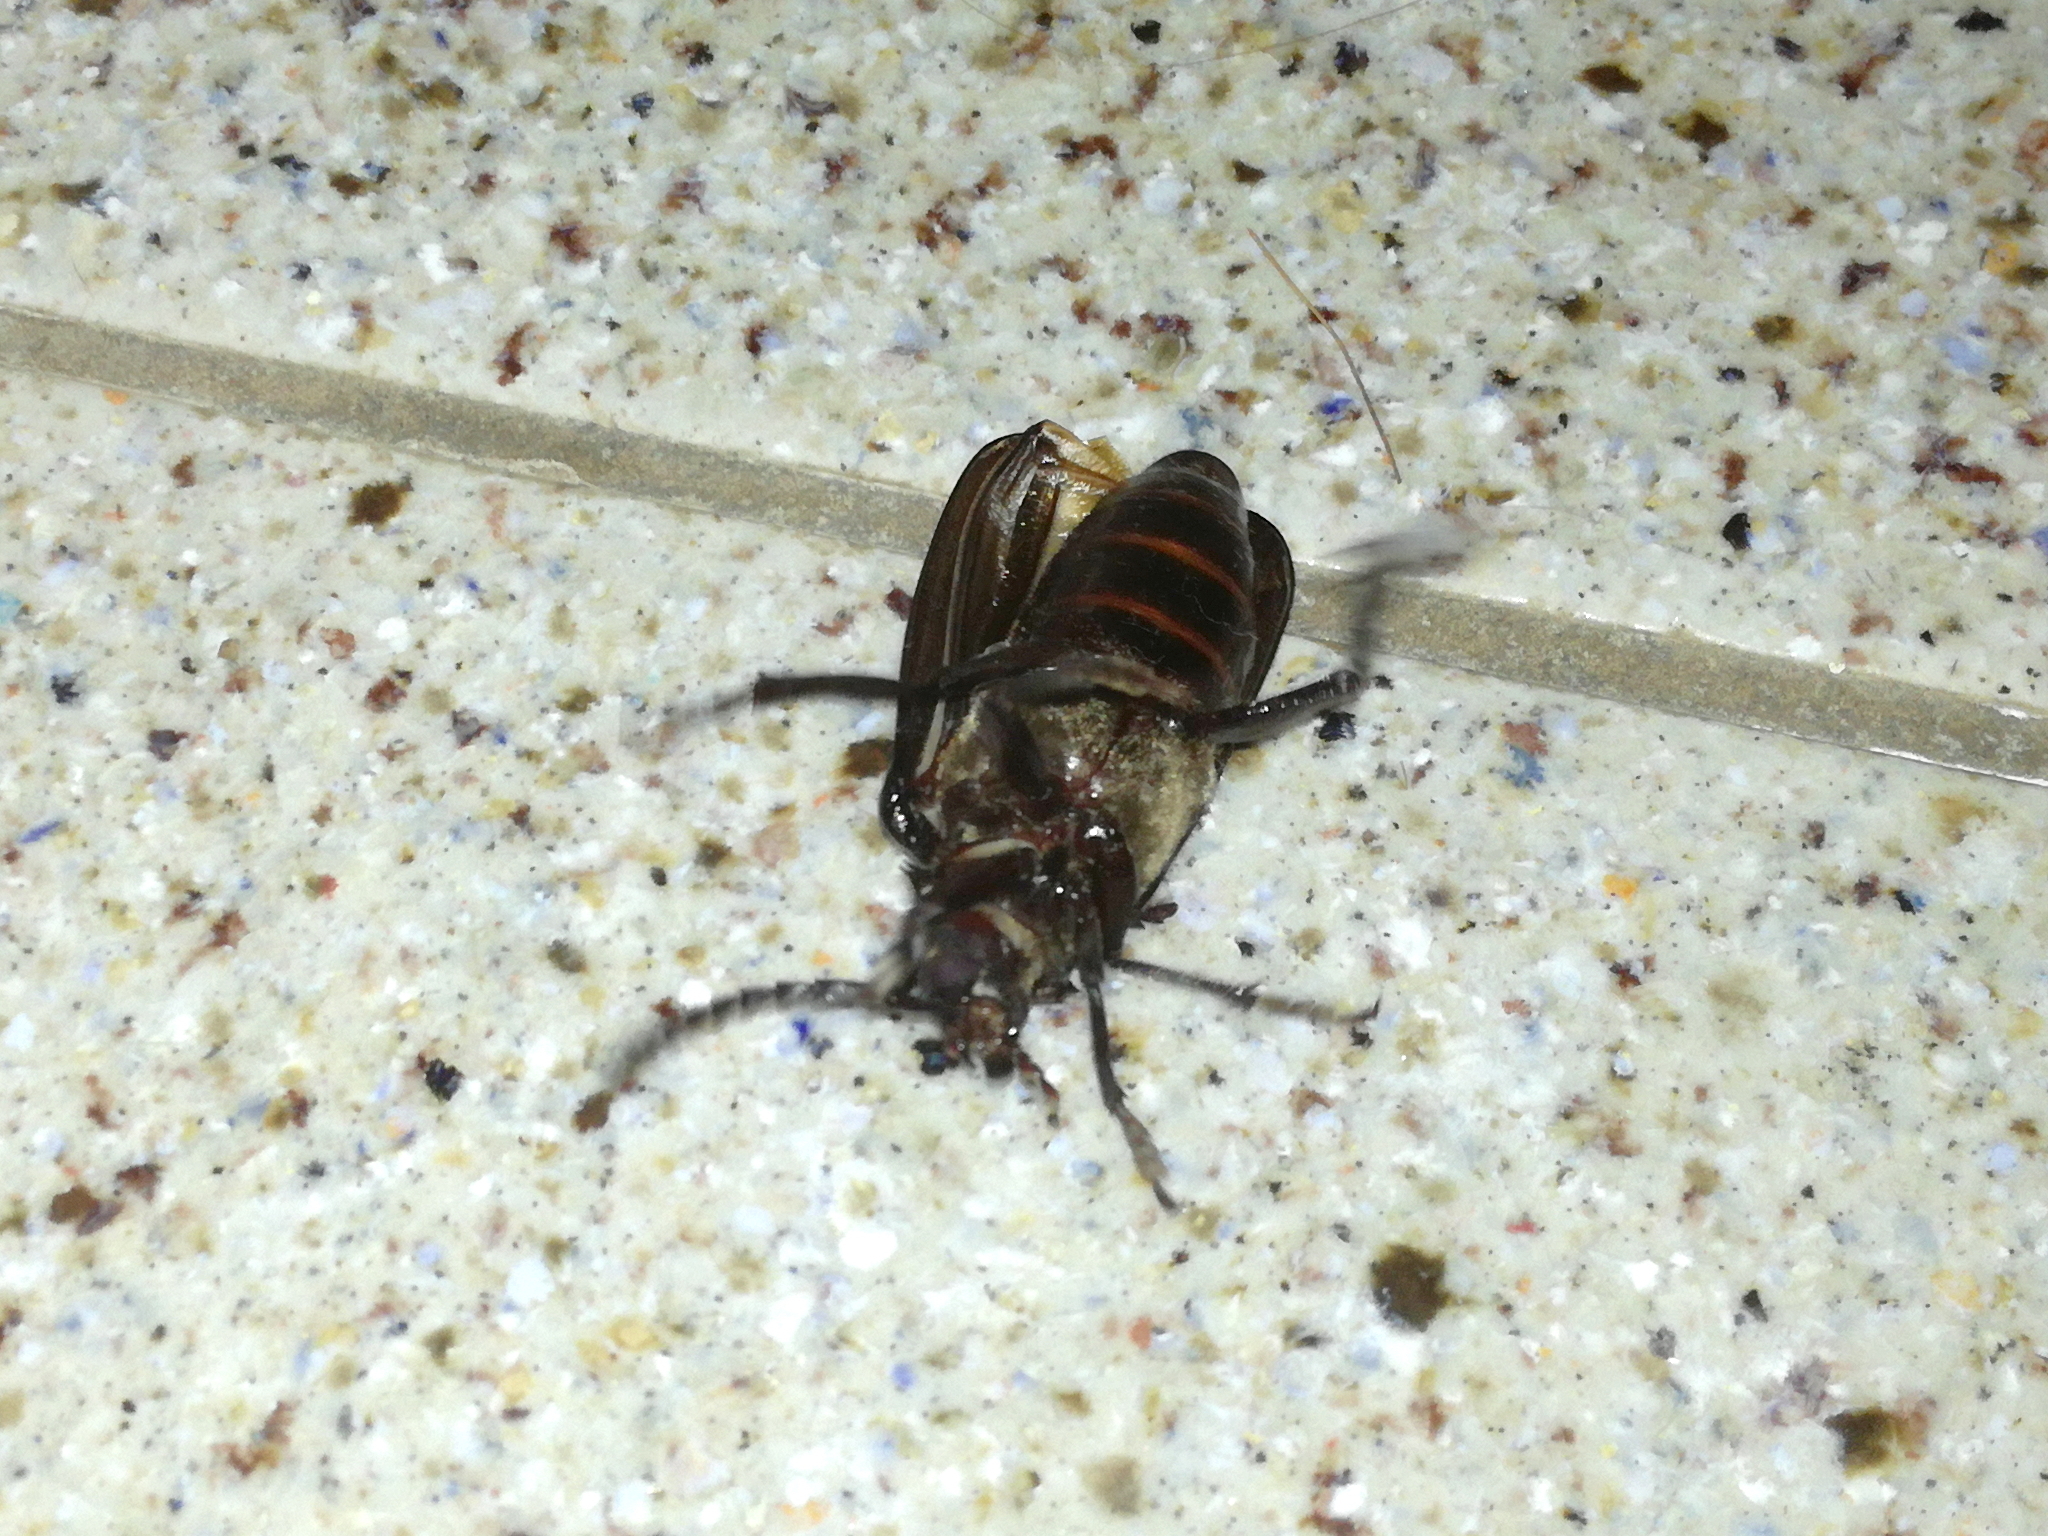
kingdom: Animalia
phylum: Arthropoda
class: Insecta
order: Coleoptera
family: Cerambycidae
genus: Prionus
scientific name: Prionus coriarius
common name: Tanner beetle
